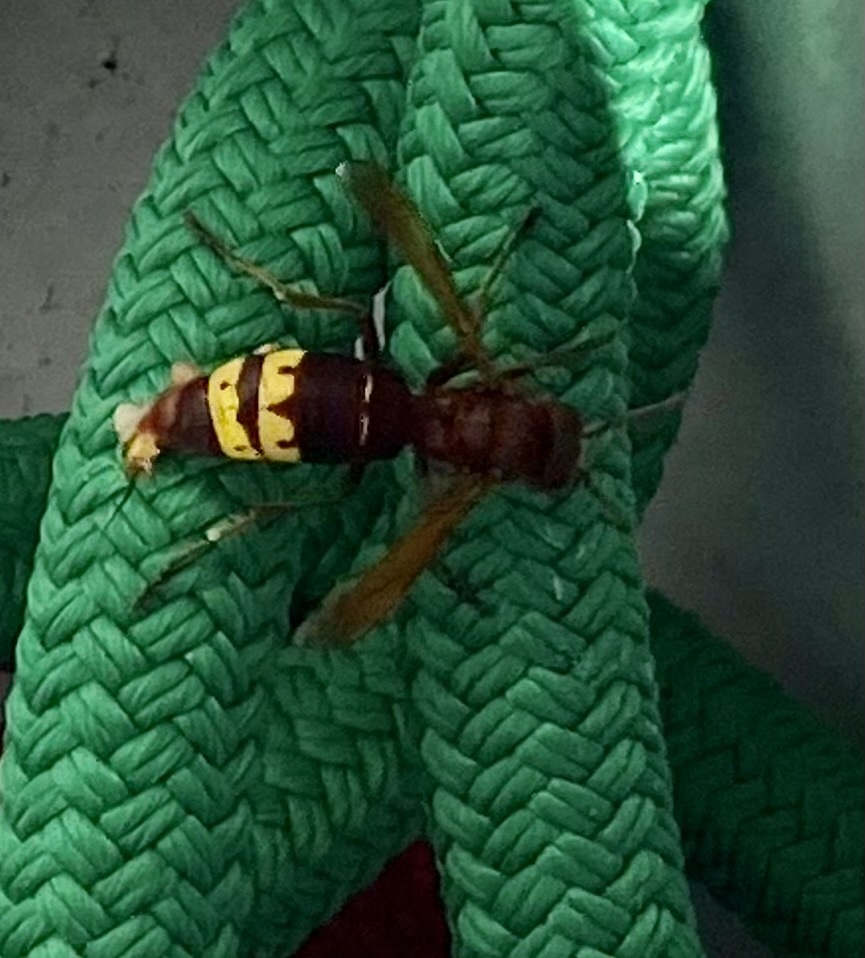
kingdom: Animalia
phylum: Arthropoda
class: Insecta
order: Hymenoptera
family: Vespidae
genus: Vespa
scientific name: Vespa orientalis
